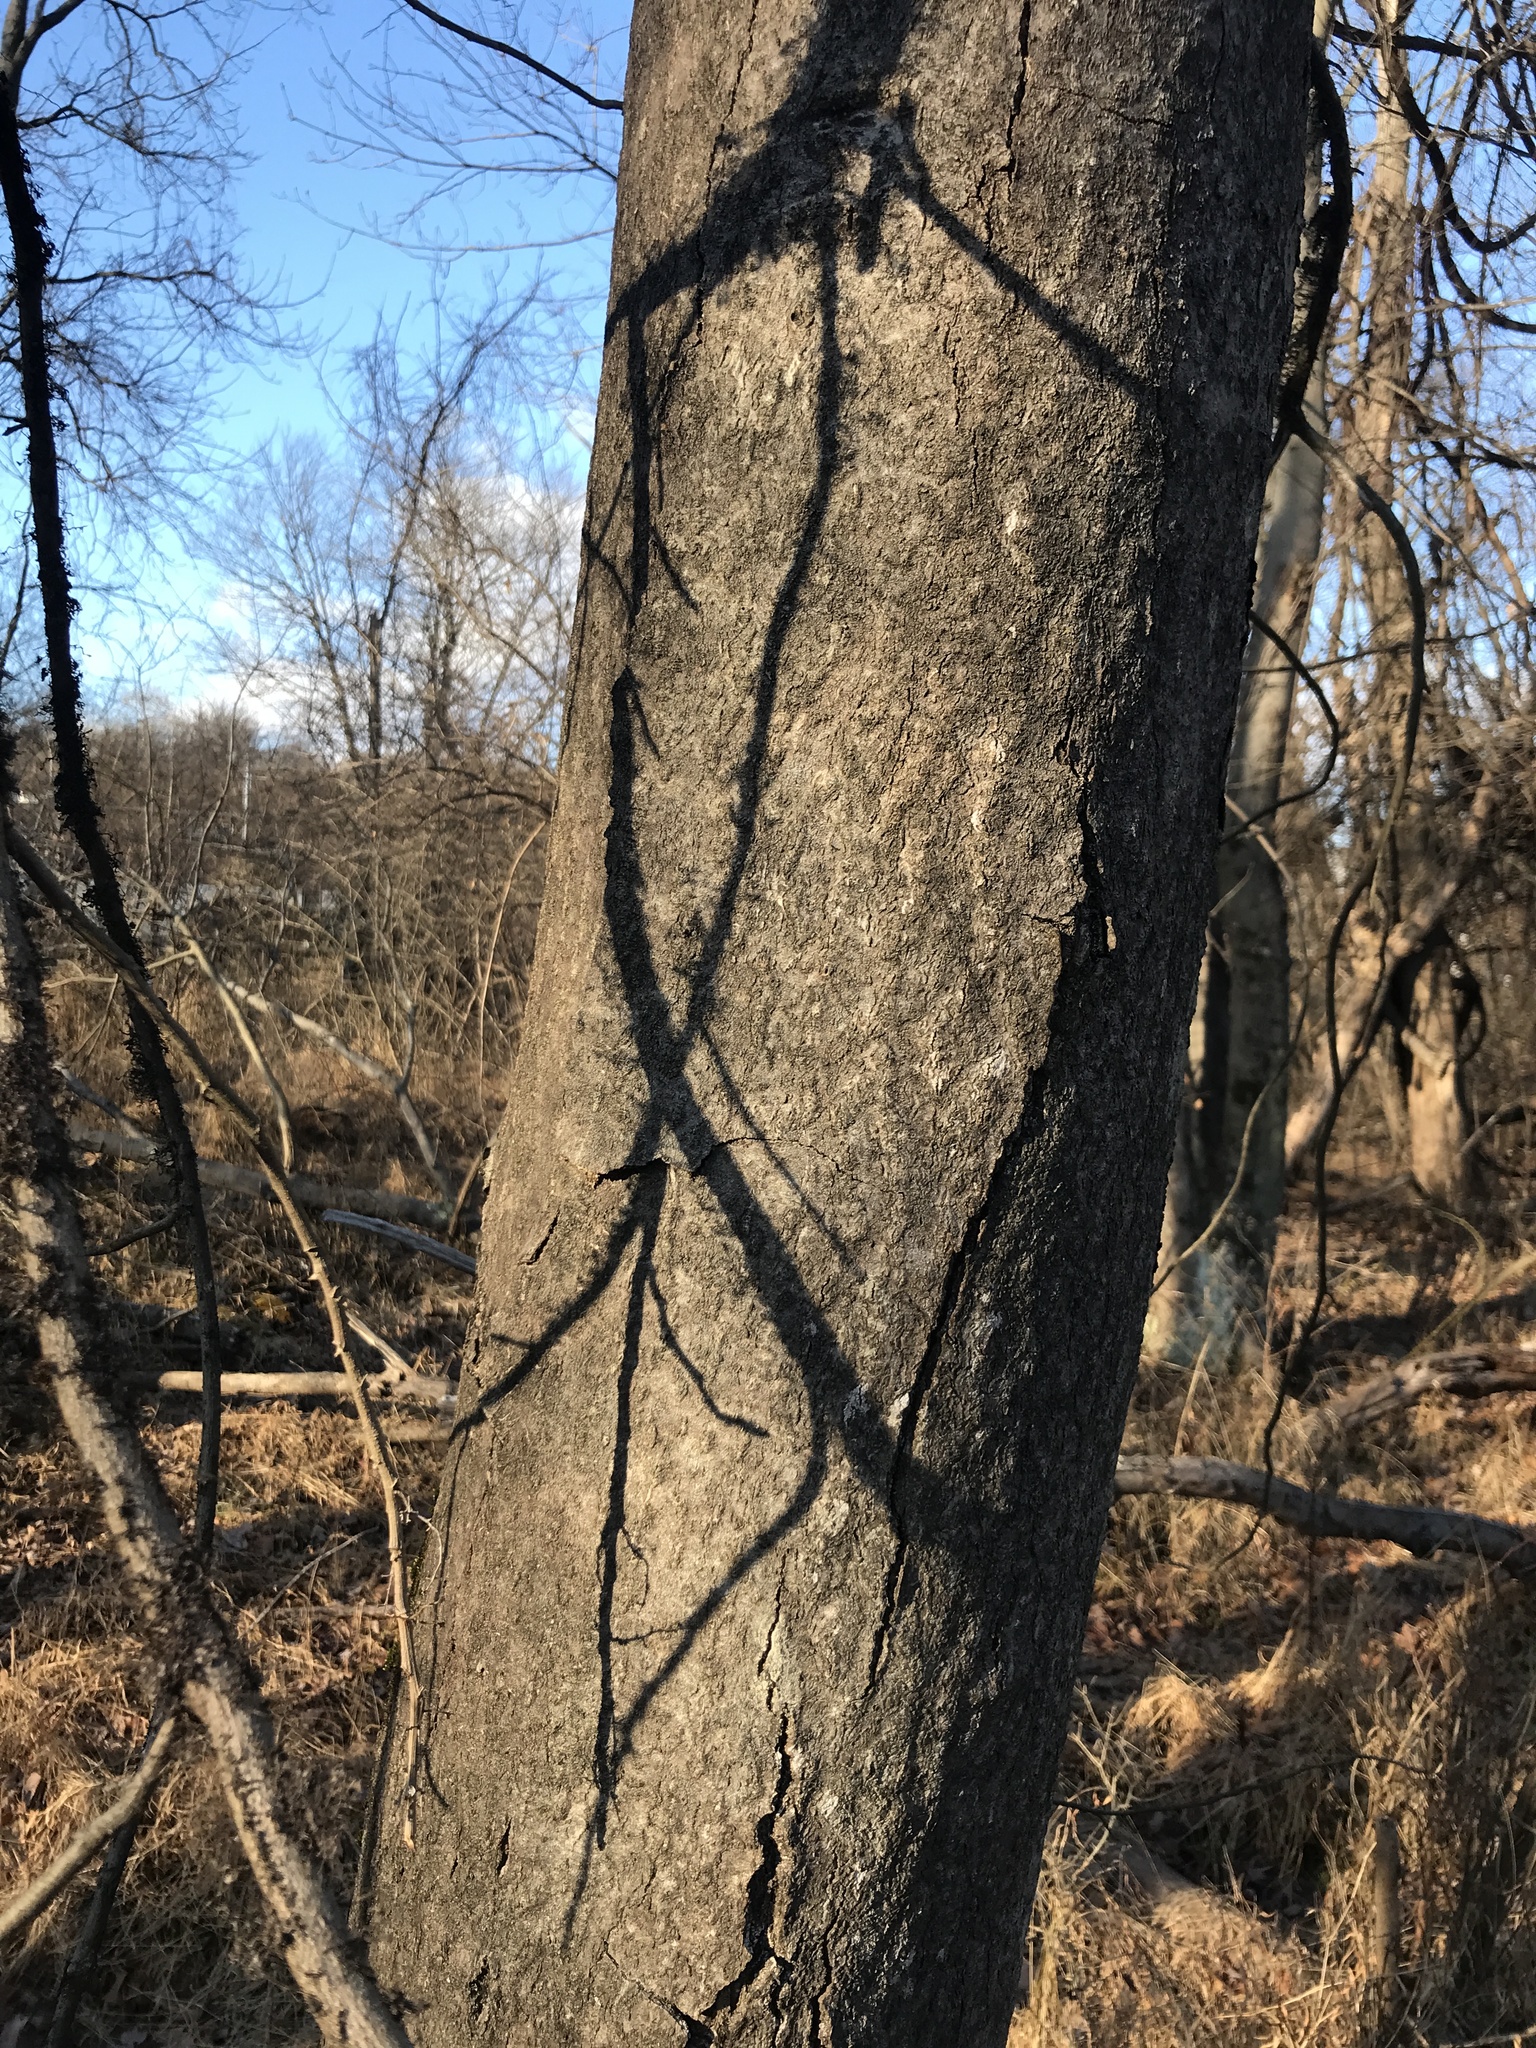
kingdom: Plantae
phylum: Tracheophyta
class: Magnoliopsida
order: Sapindales
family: Simaroubaceae
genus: Ailanthus
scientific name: Ailanthus altissima
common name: Tree-of-heaven
